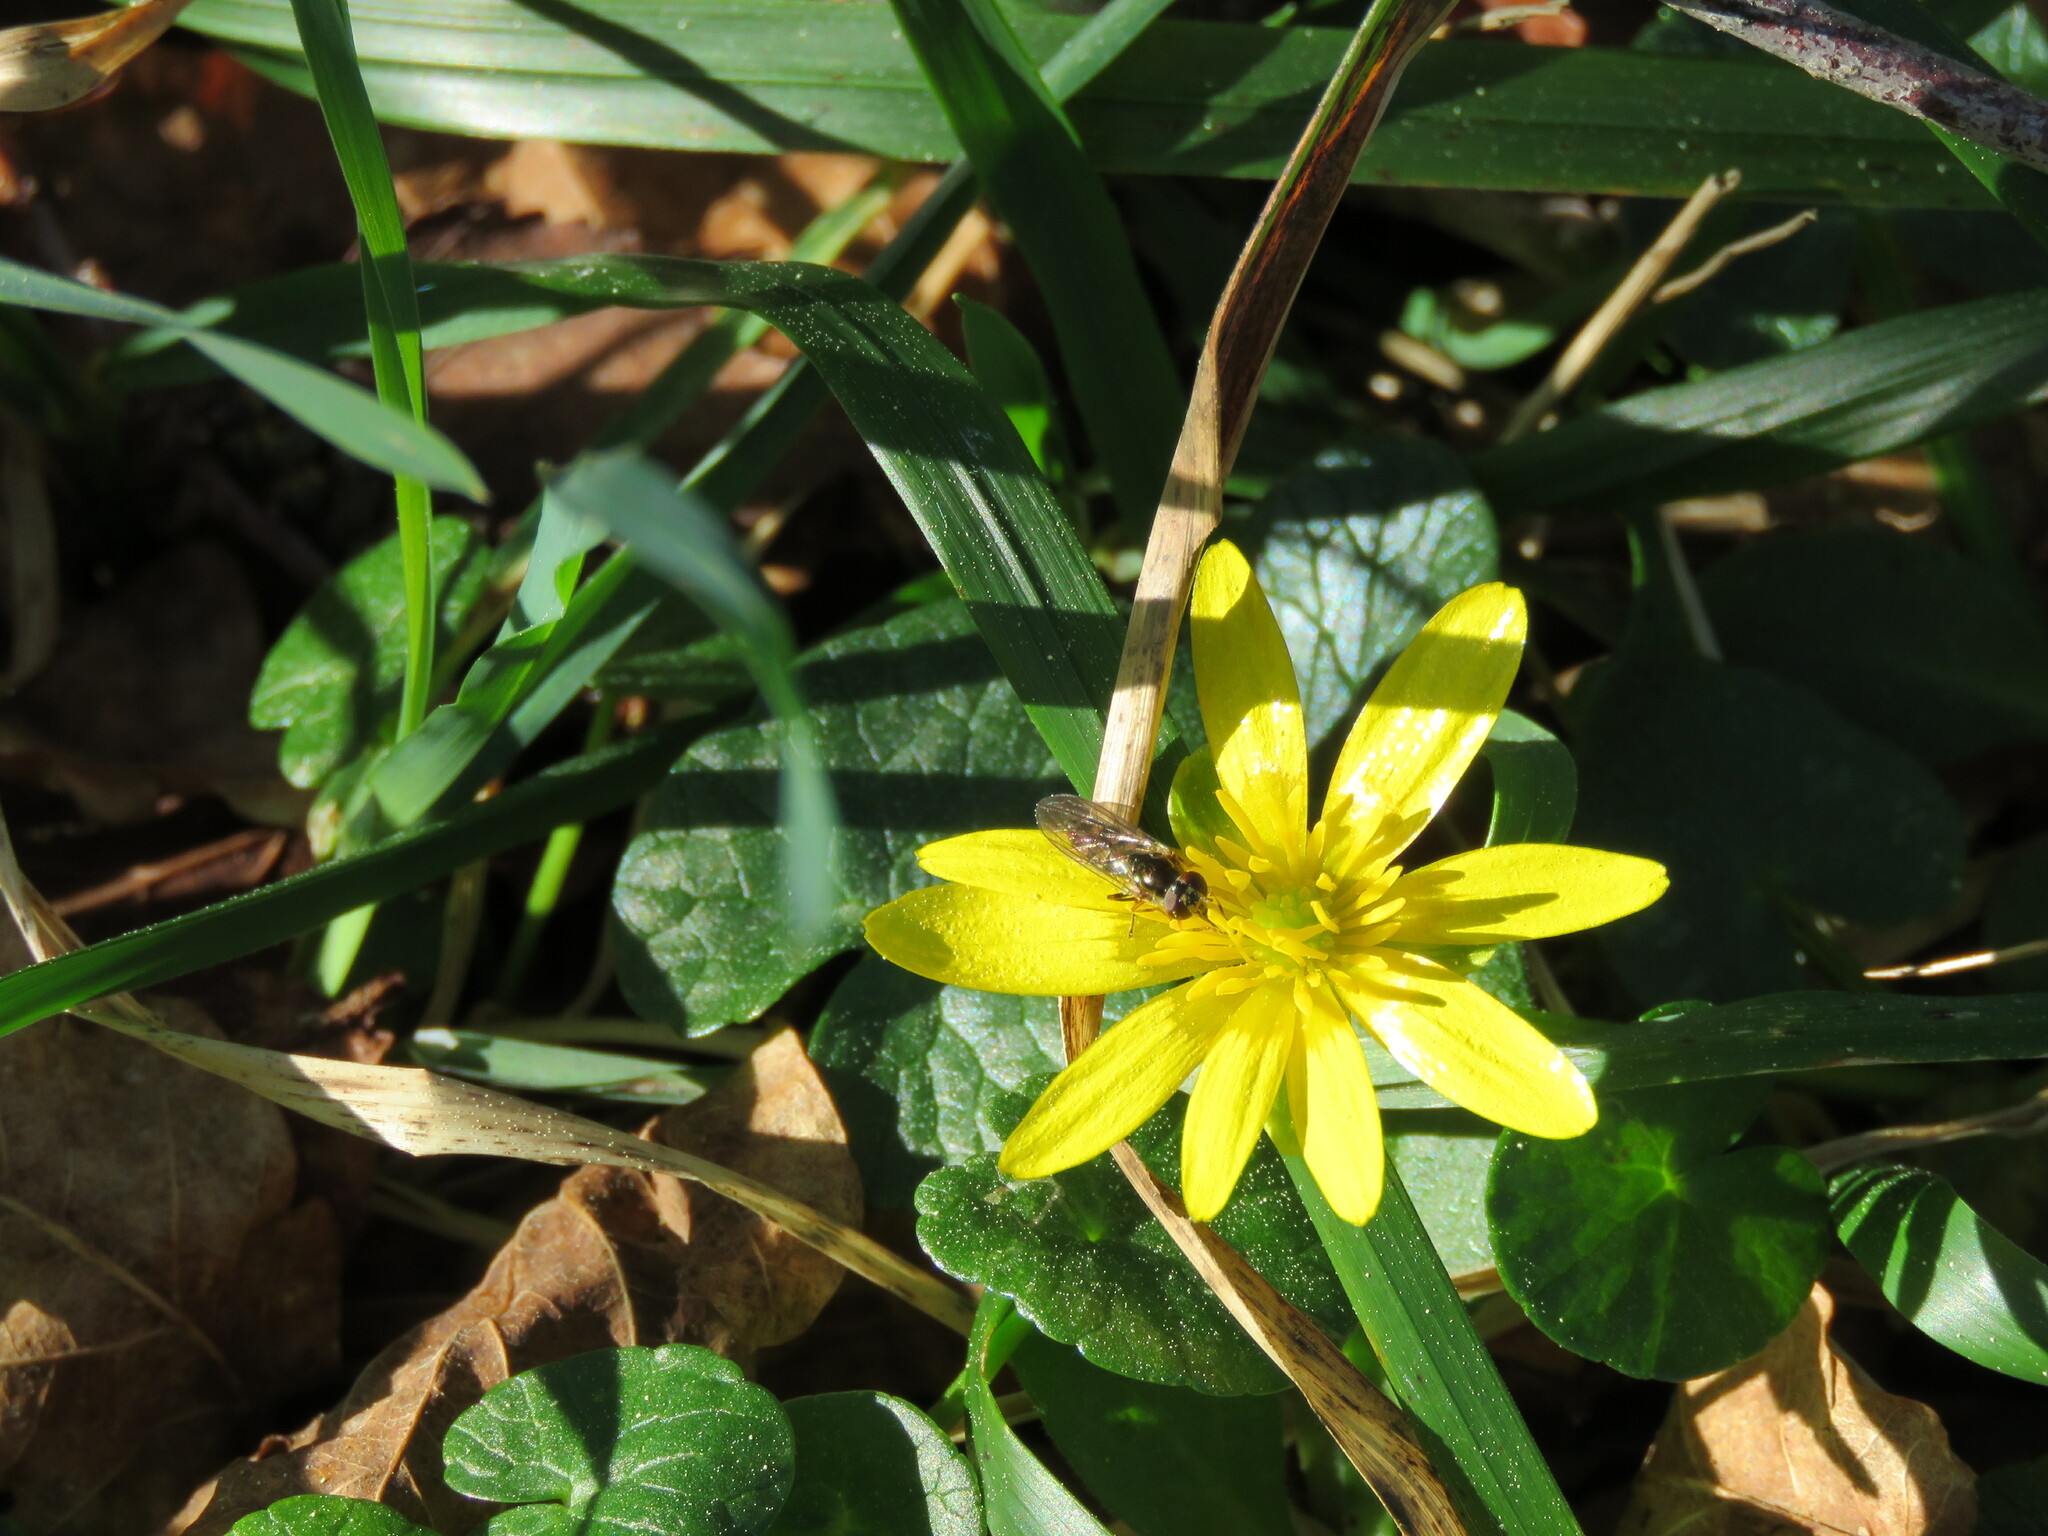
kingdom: Animalia
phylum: Arthropoda
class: Insecta
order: Diptera
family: Syrphidae
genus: Melanostoma
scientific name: Melanostoma scalare
